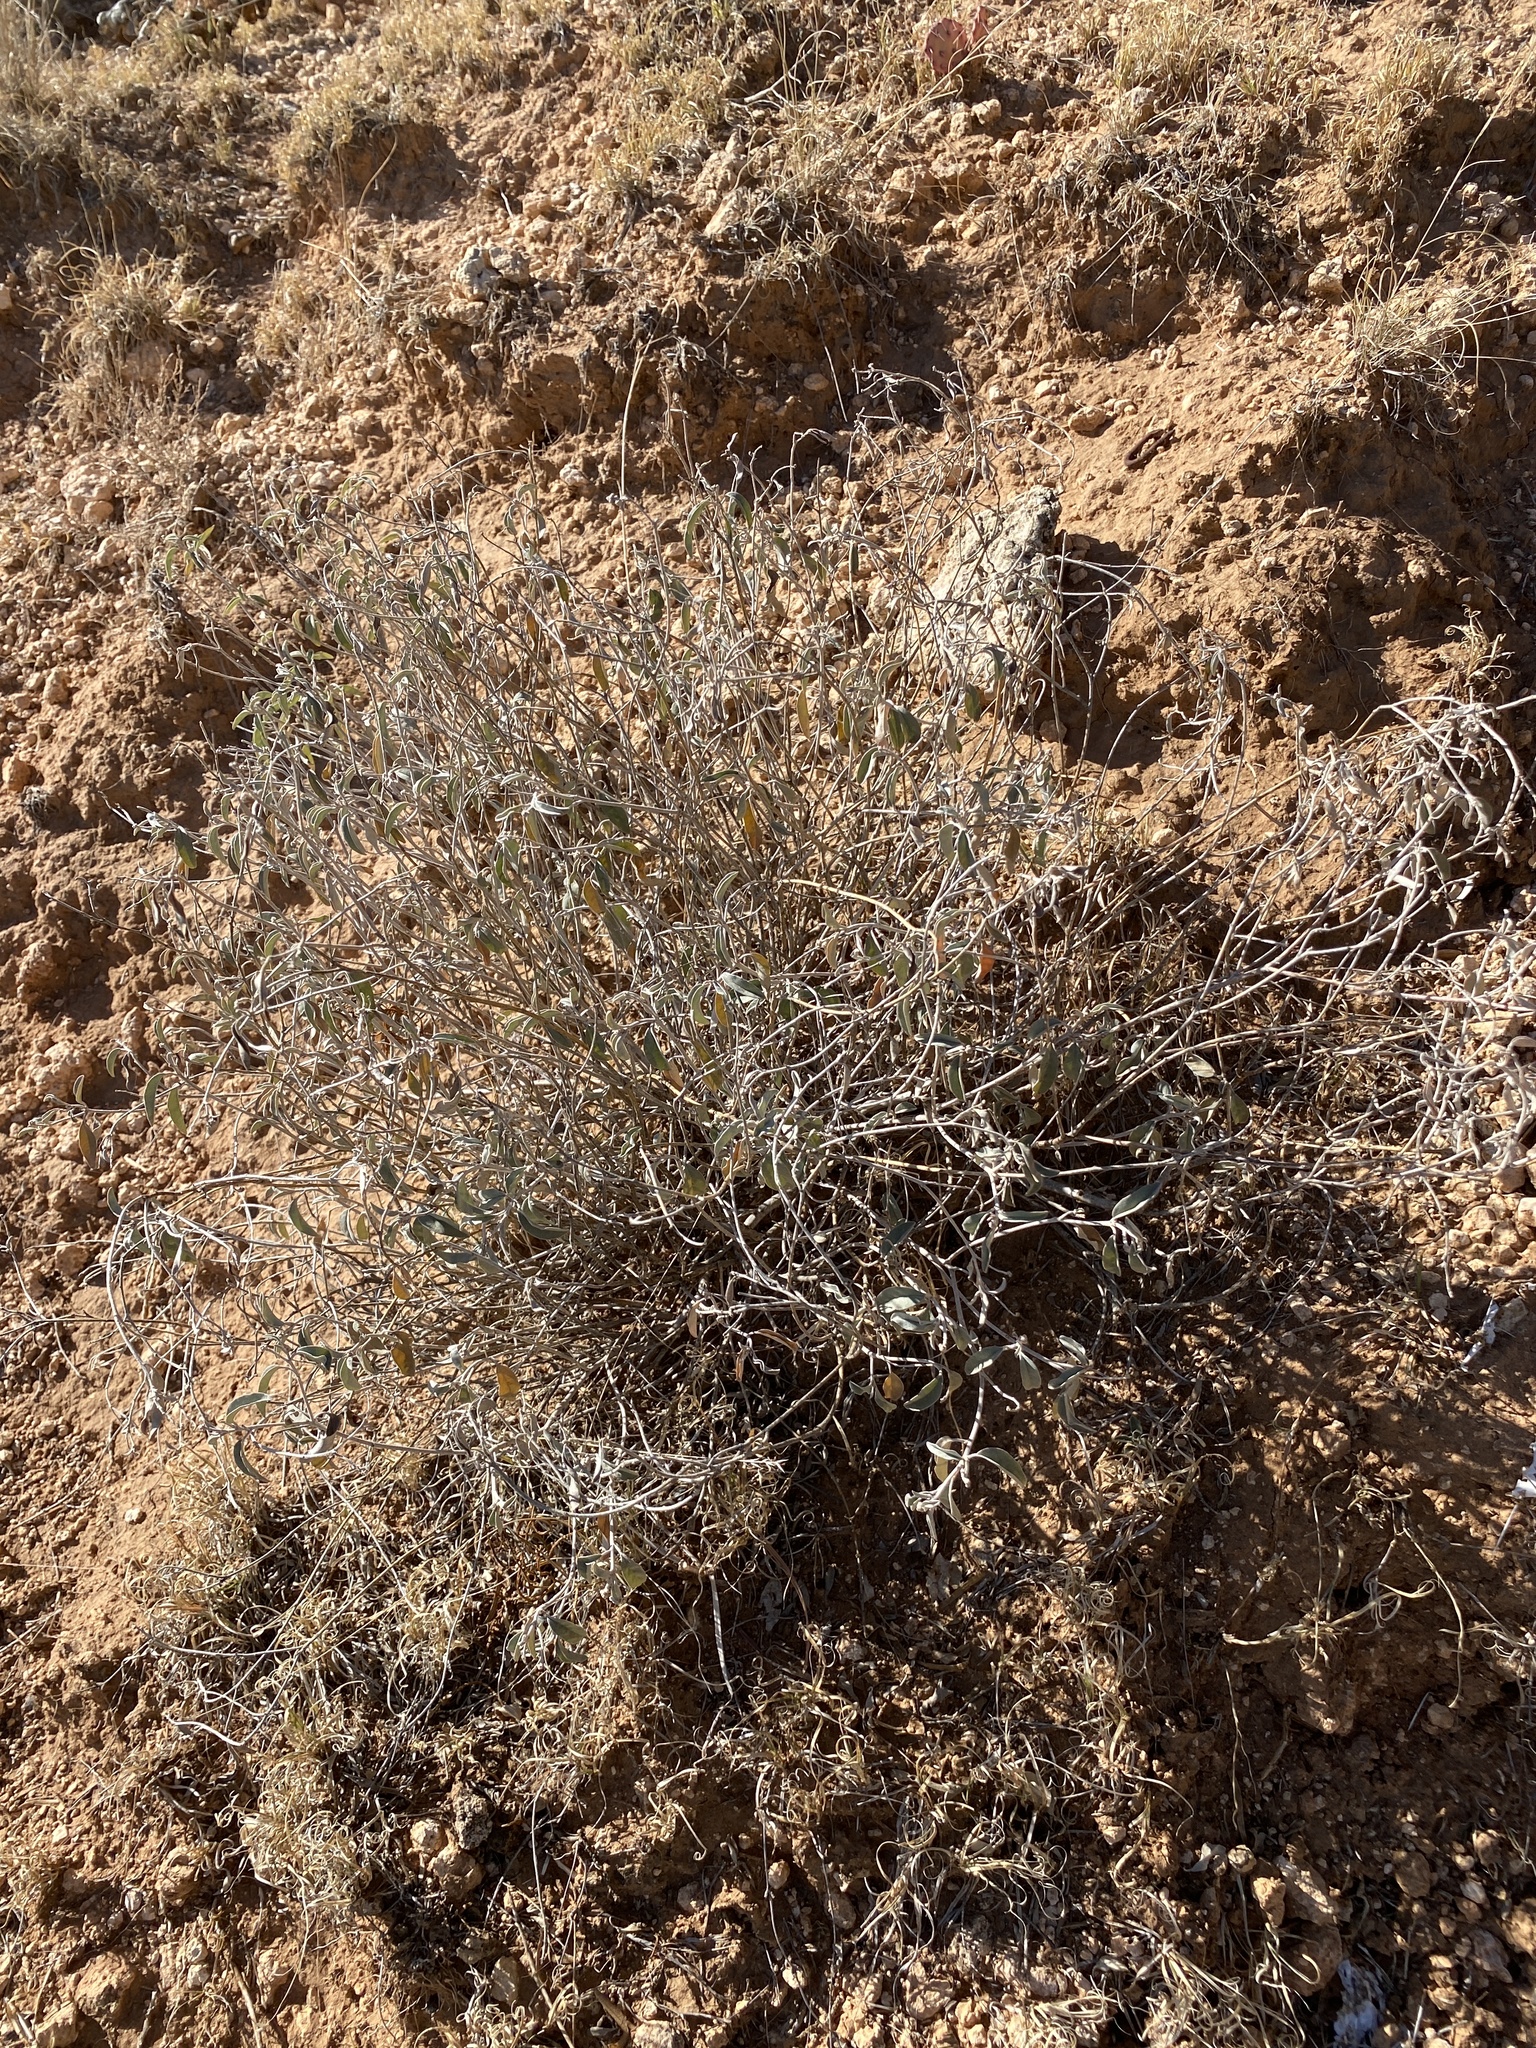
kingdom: Plantae
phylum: Tracheophyta
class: Magnoliopsida
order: Malpighiales
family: Euphorbiaceae
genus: Croton
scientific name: Croton dioicus
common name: Grassland croton
